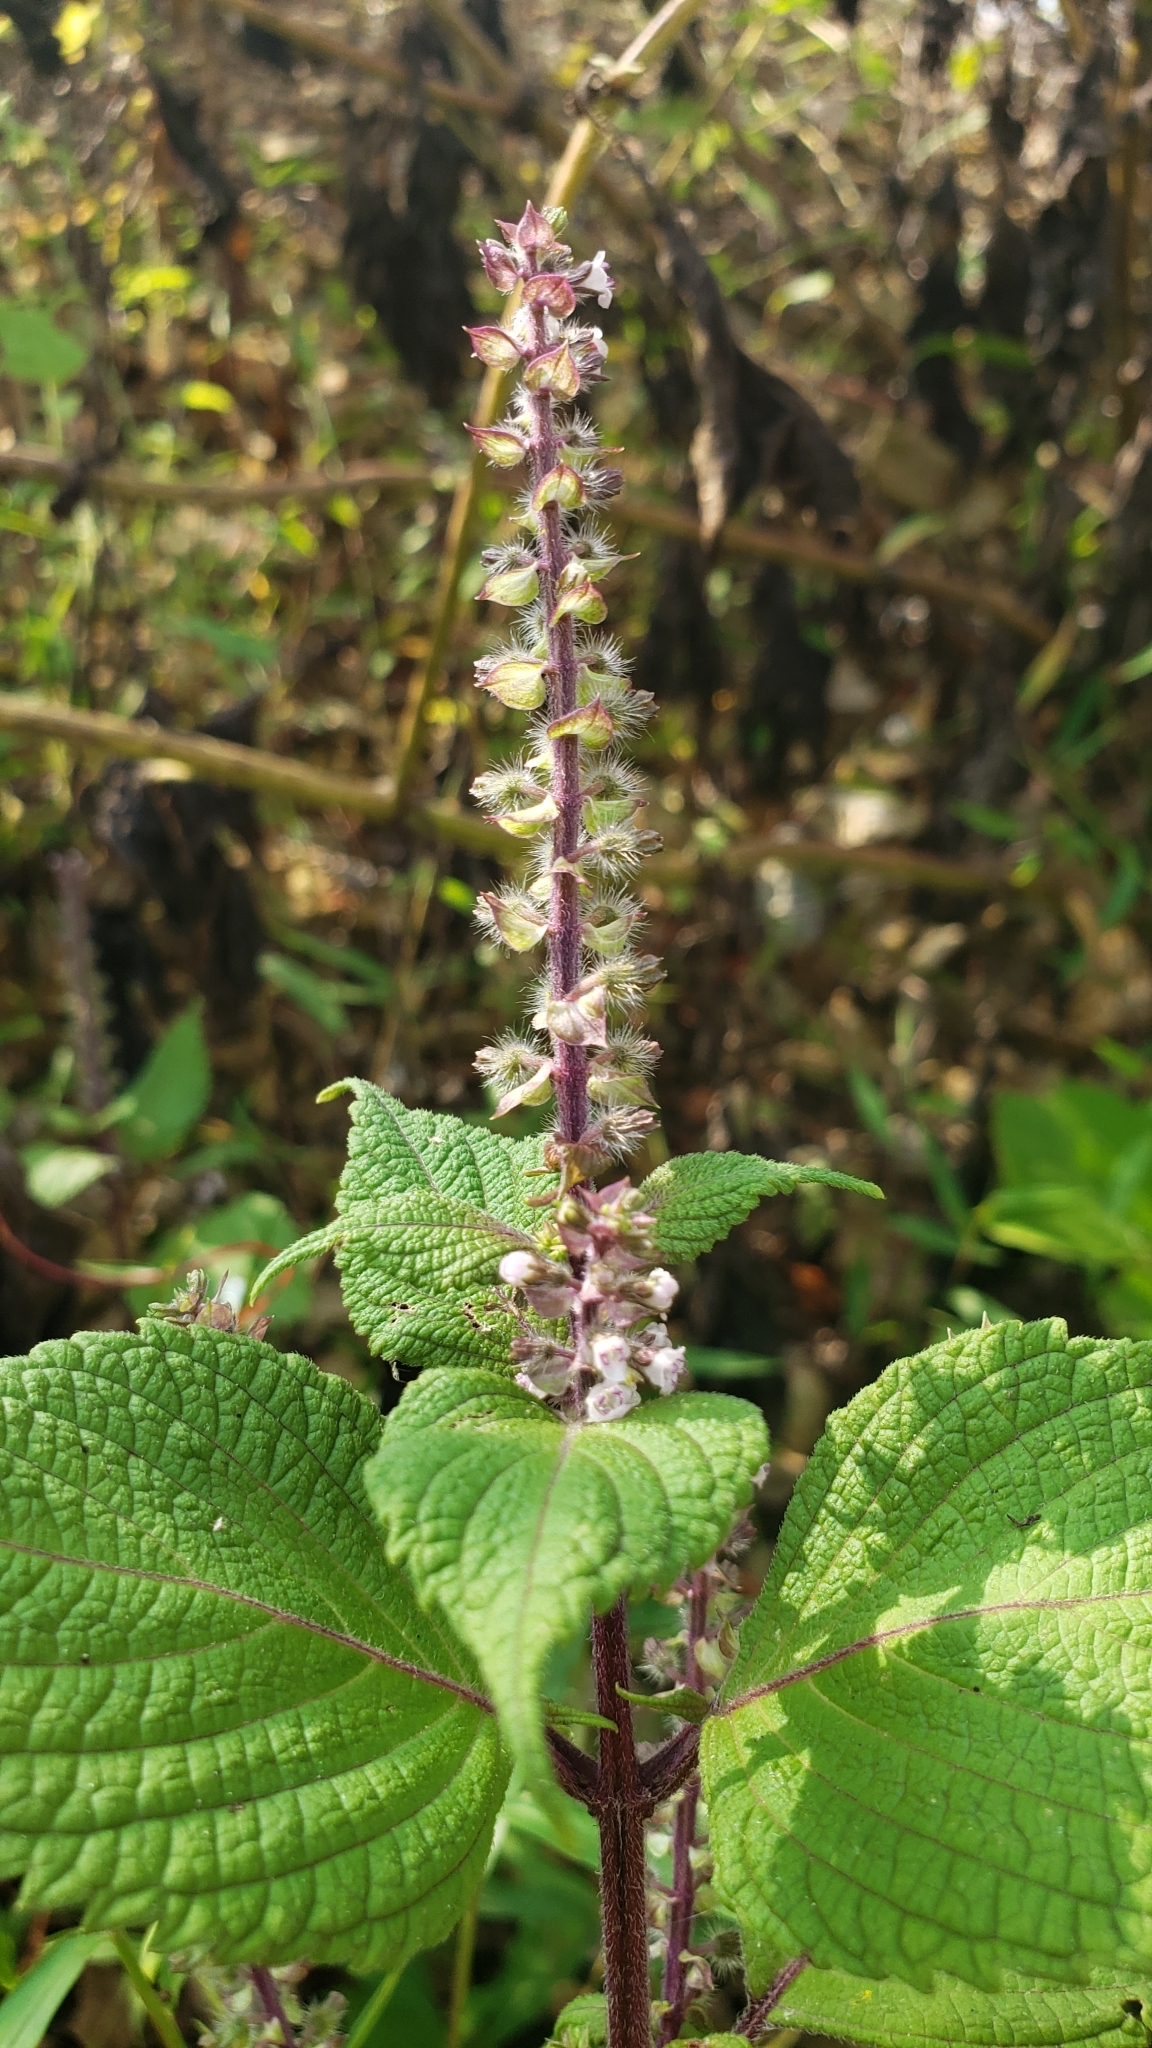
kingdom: Plantae
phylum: Tracheophyta
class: Magnoliopsida
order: Lamiales
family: Lamiaceae
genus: Perilla
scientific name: Perilla frutescens
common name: Perilla
